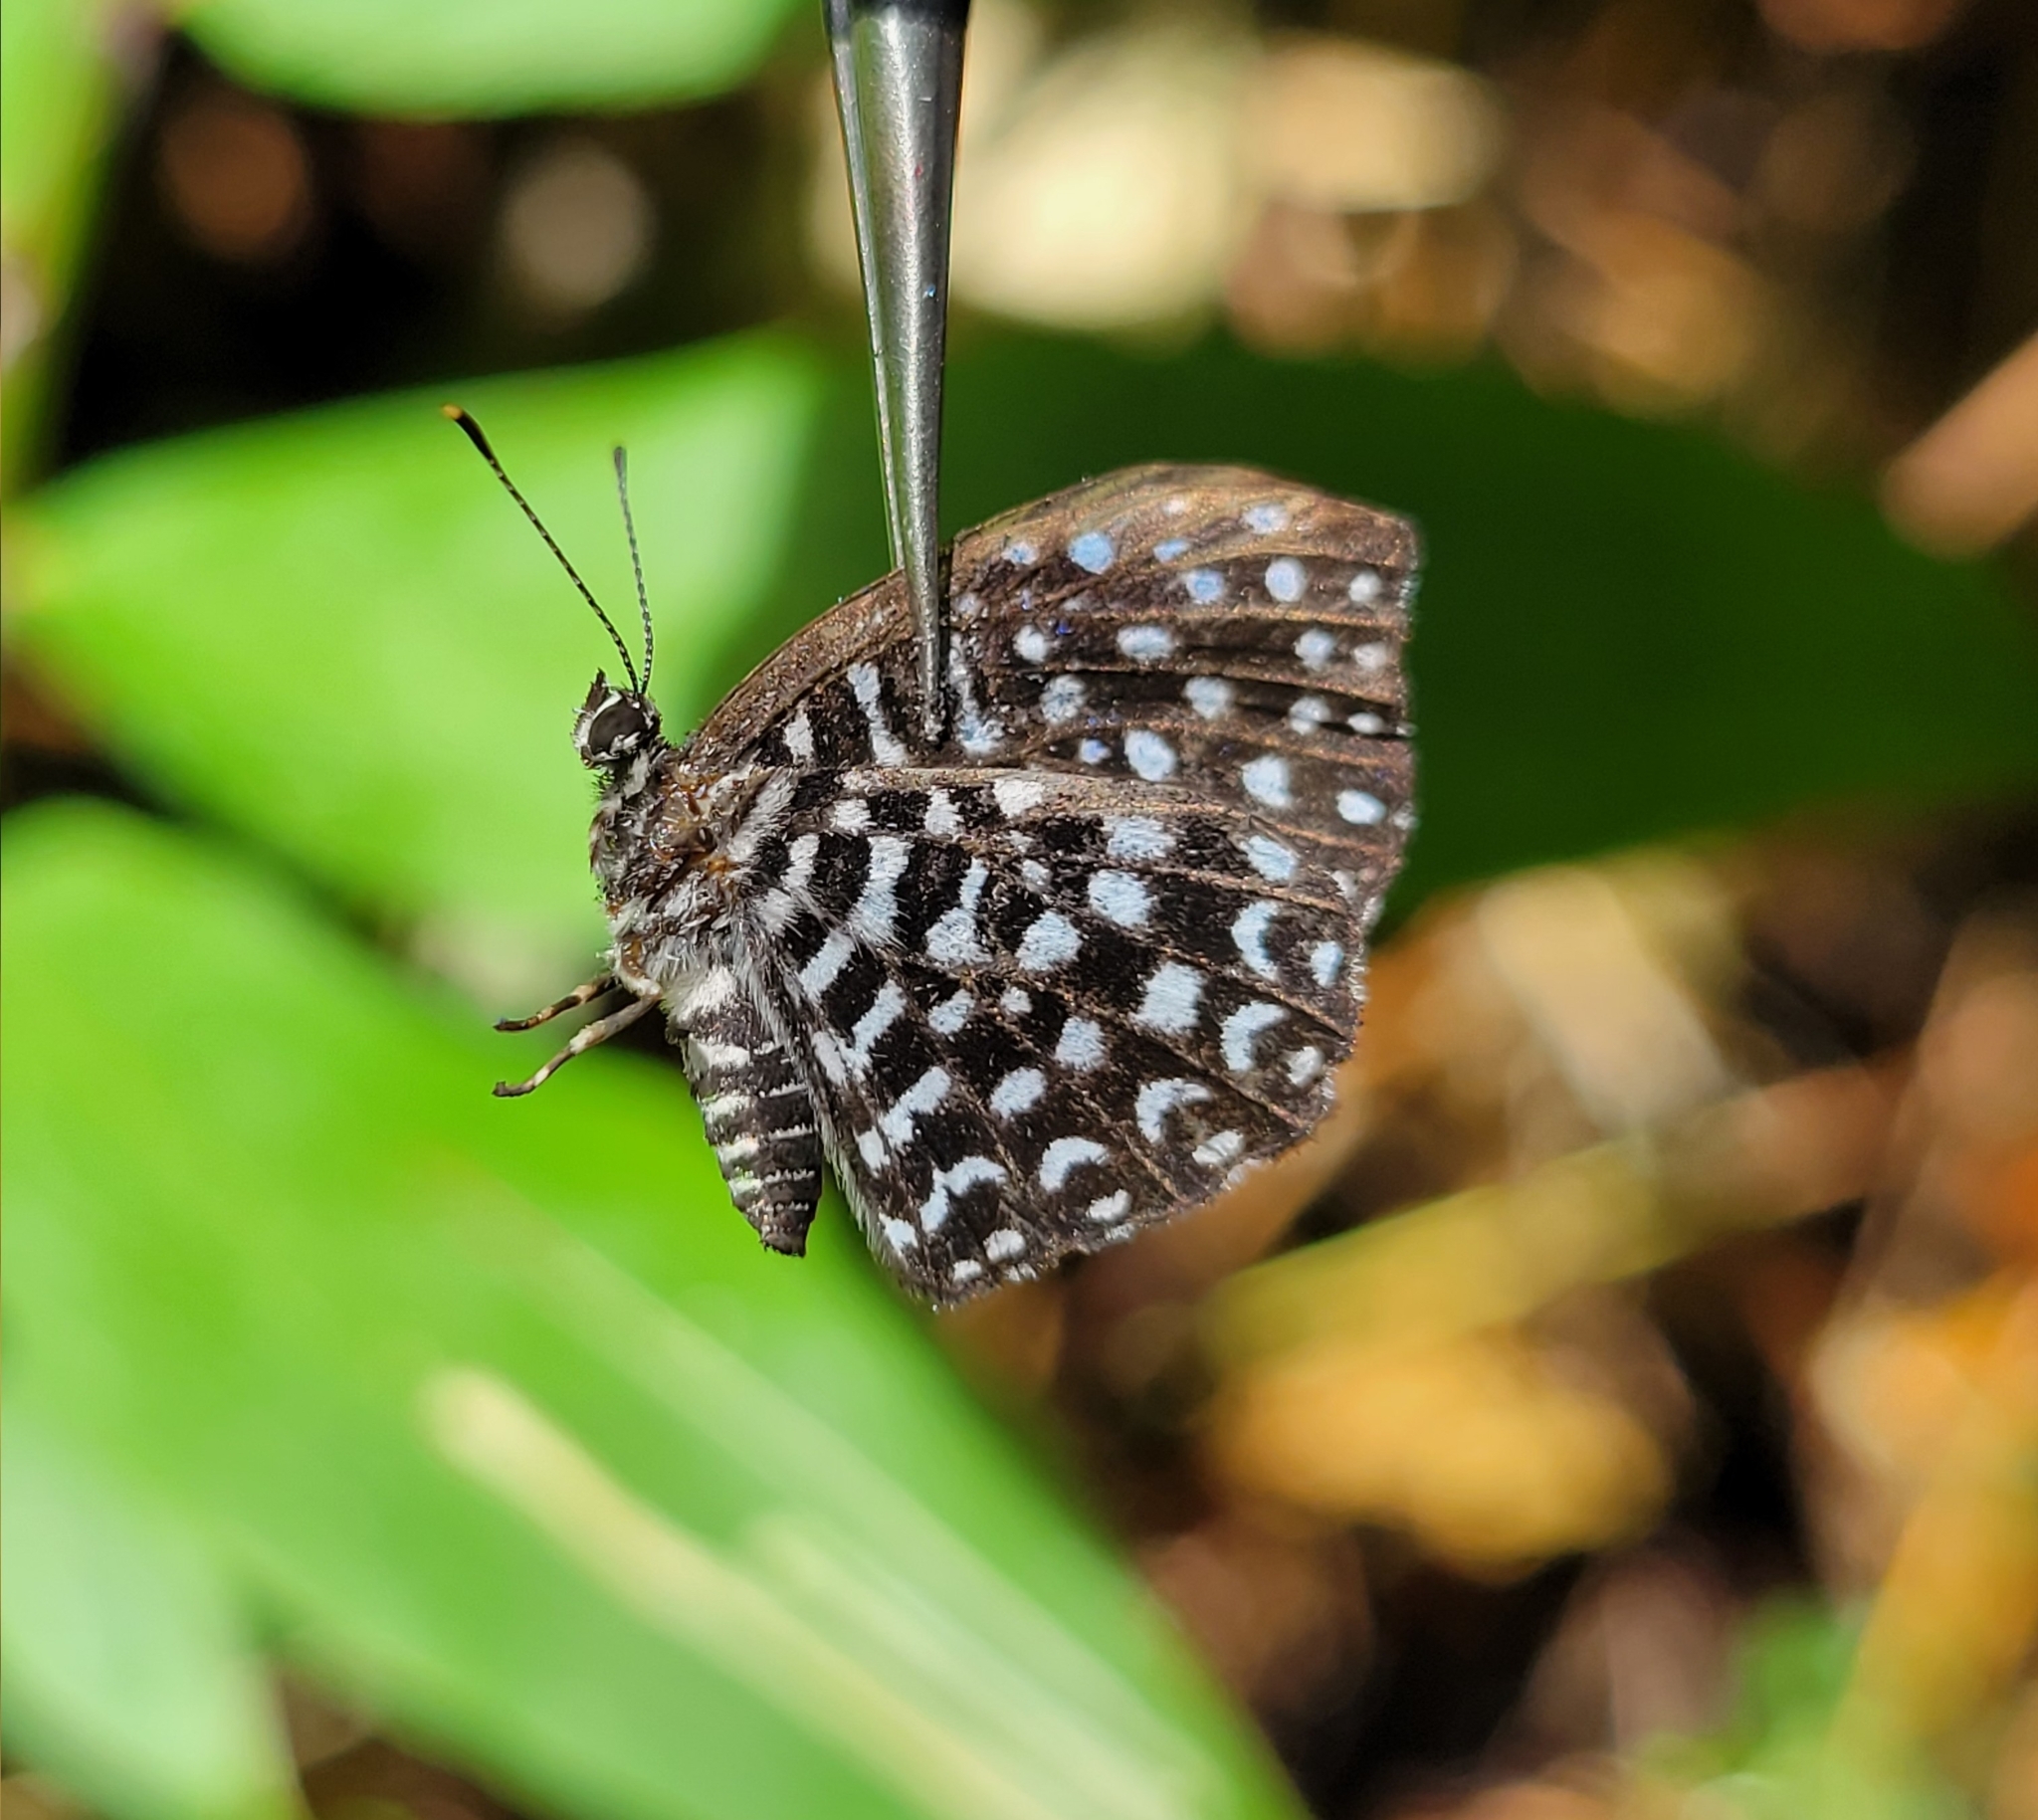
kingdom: Animalia
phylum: Arthropoda
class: Insecta
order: Diptera
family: Ephydridae
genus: Napaea
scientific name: Napaea
